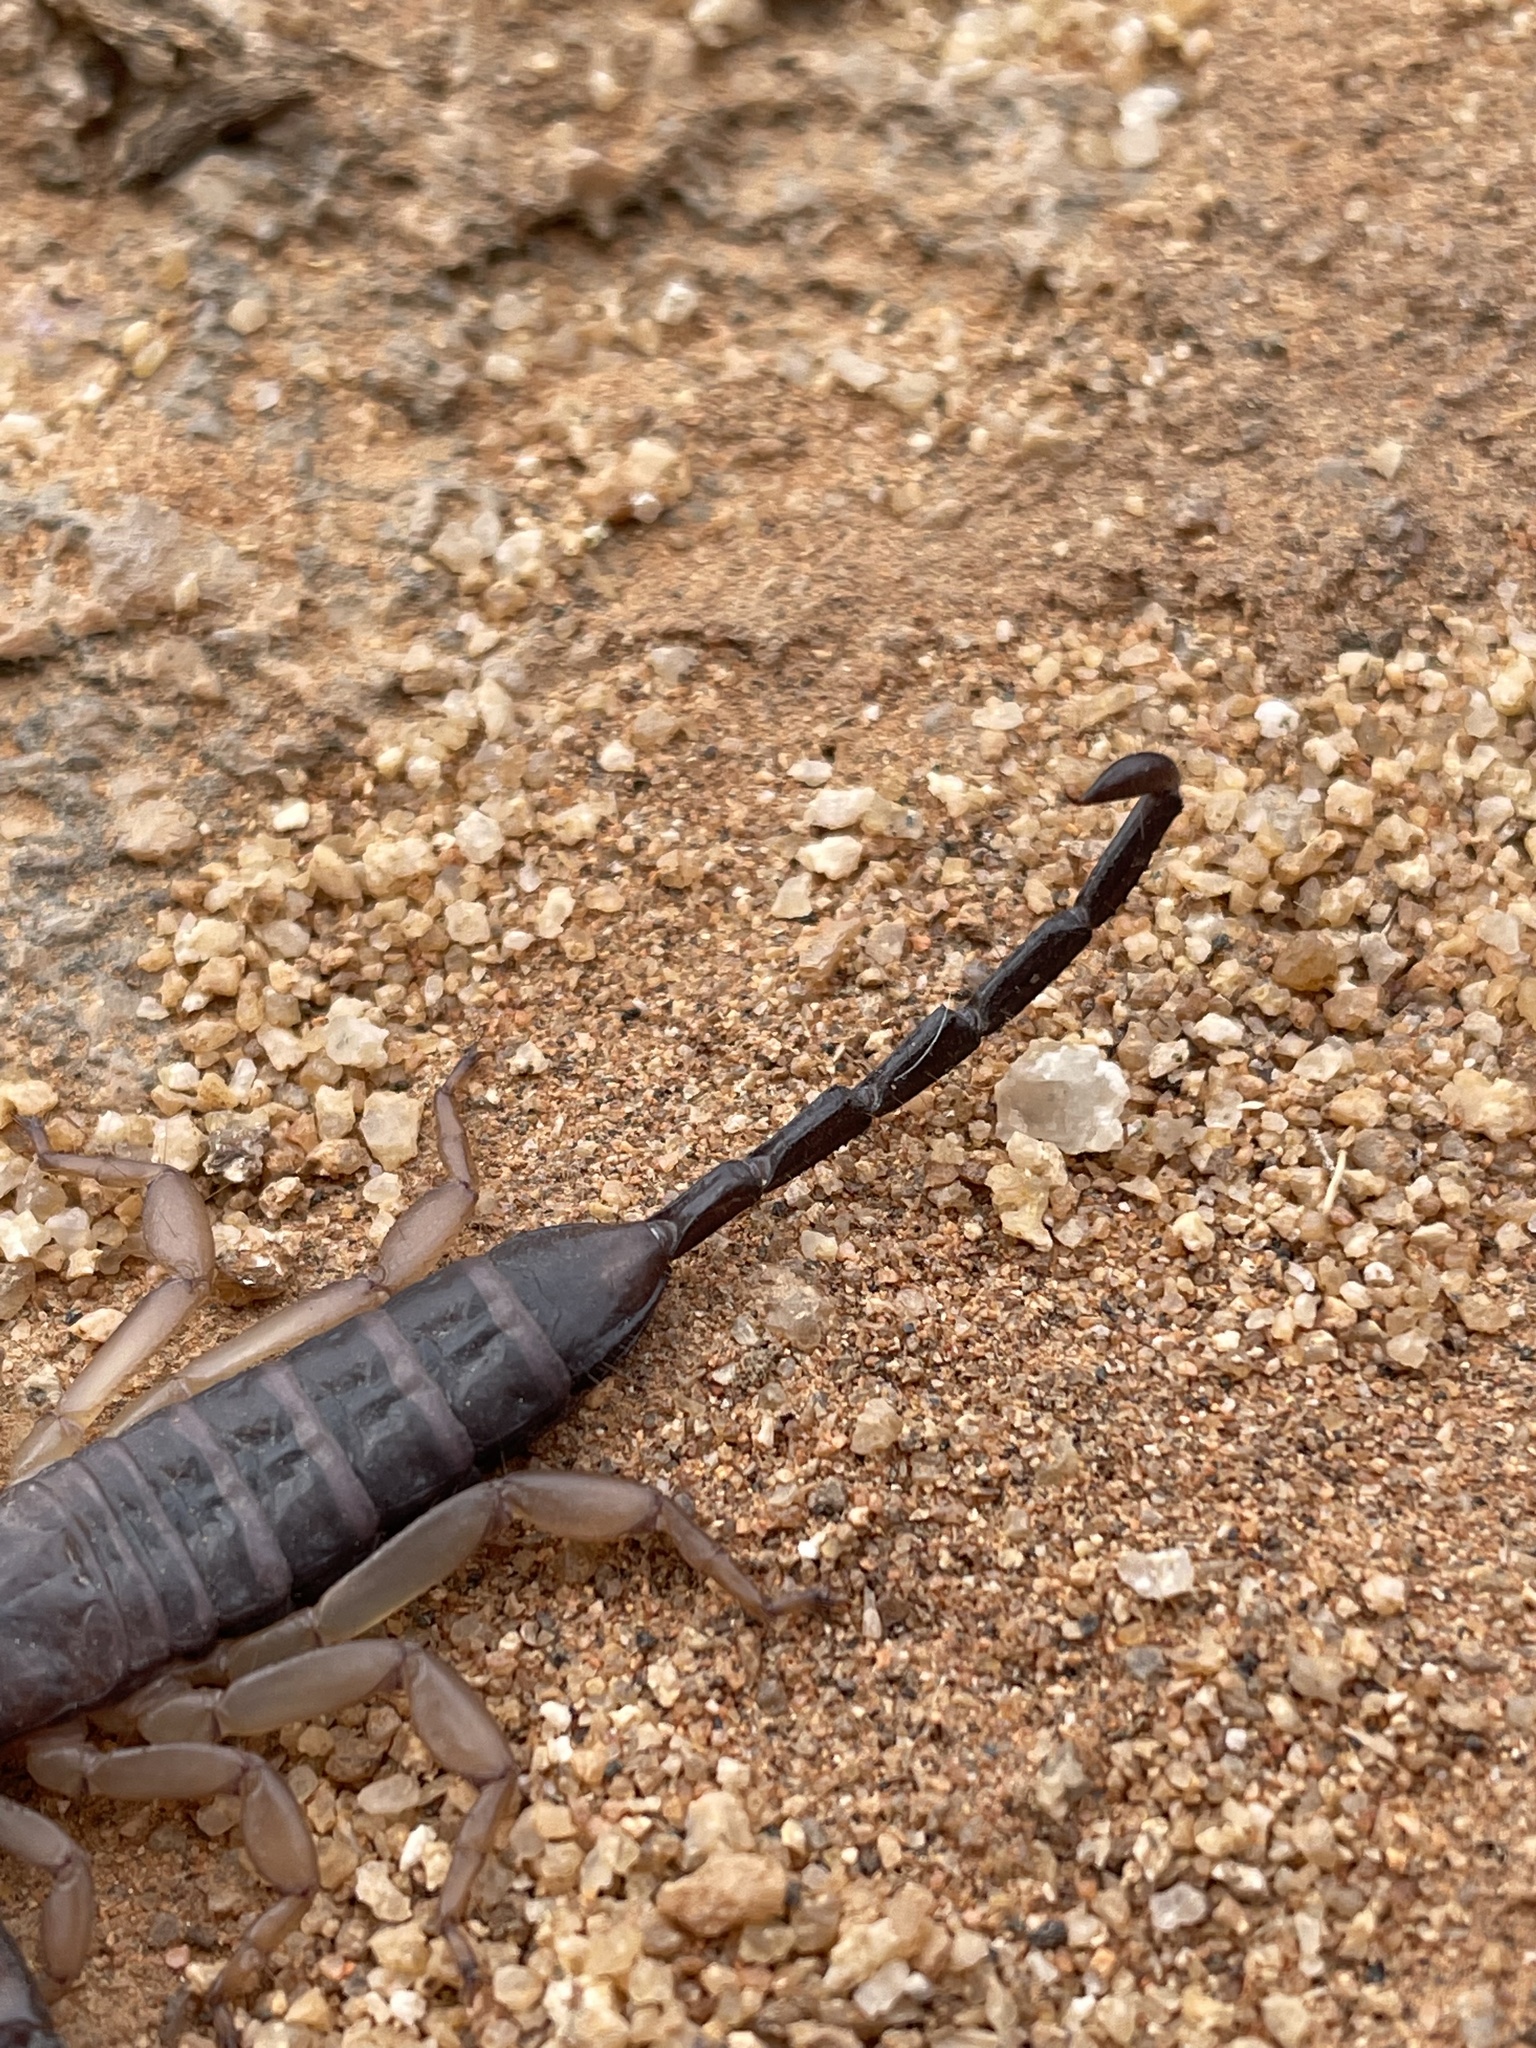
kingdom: Animalia
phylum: Arthropoda
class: Arachnida
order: Scorpiones
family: Hormuridae
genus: Hadogenes
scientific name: Hadogenes phyllodes
